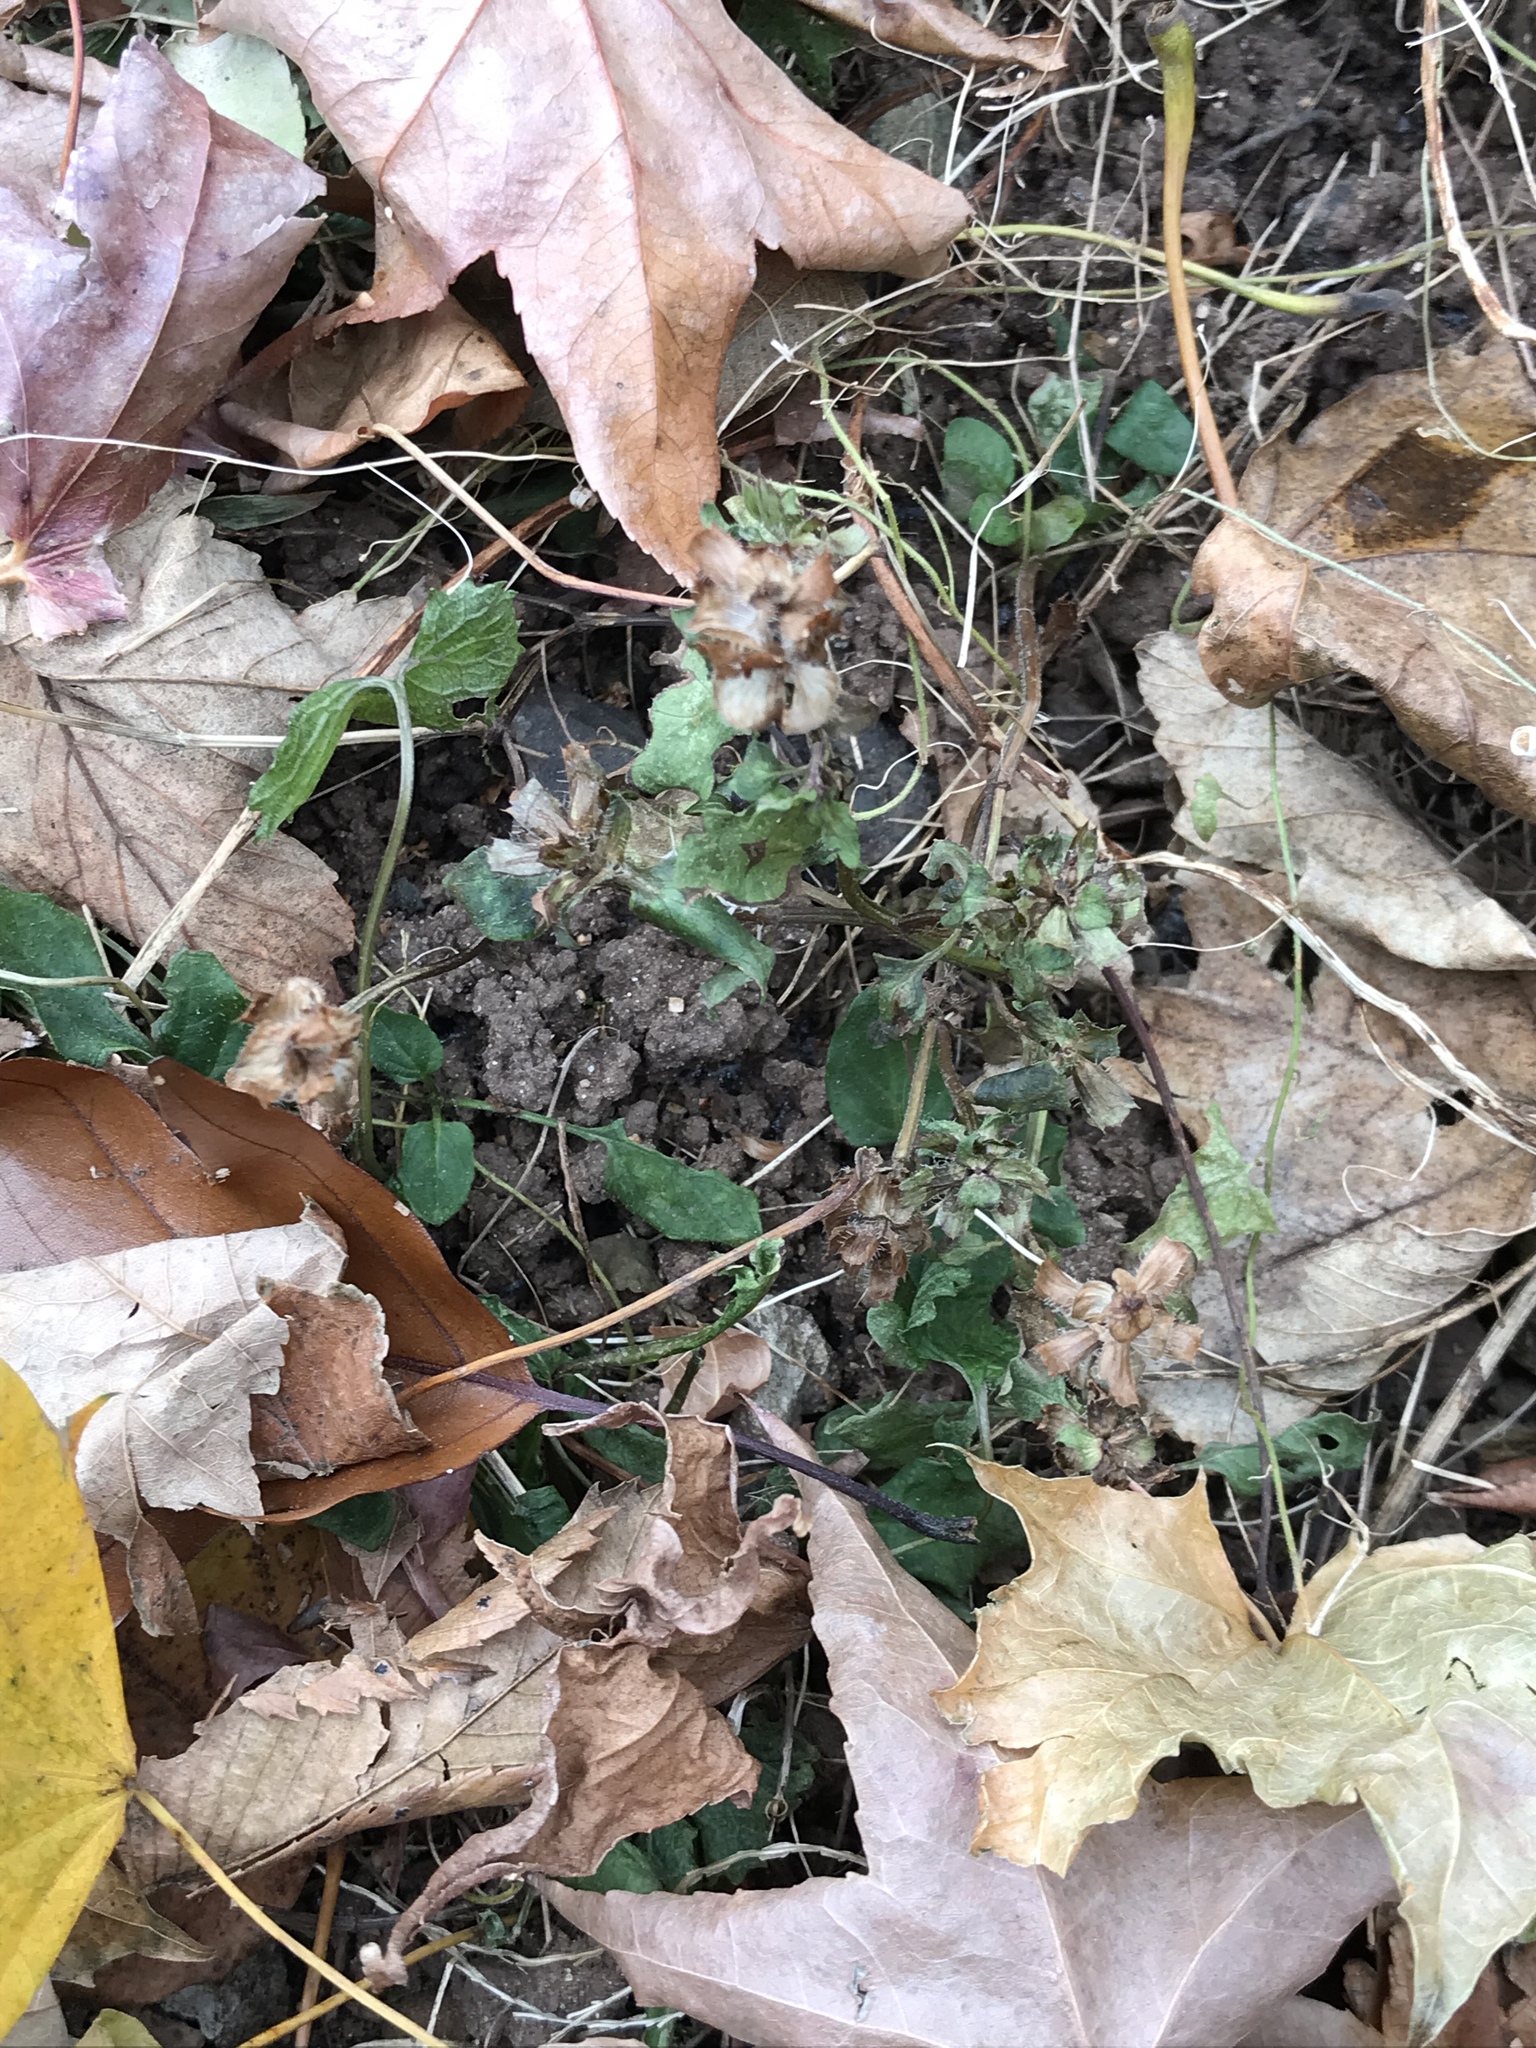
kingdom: Plantae
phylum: Tracheophyta
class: Magnoliopsida
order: Lamiales
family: Lamiaceae
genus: Prunella
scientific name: Prunella vulgaris
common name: Heal-all
